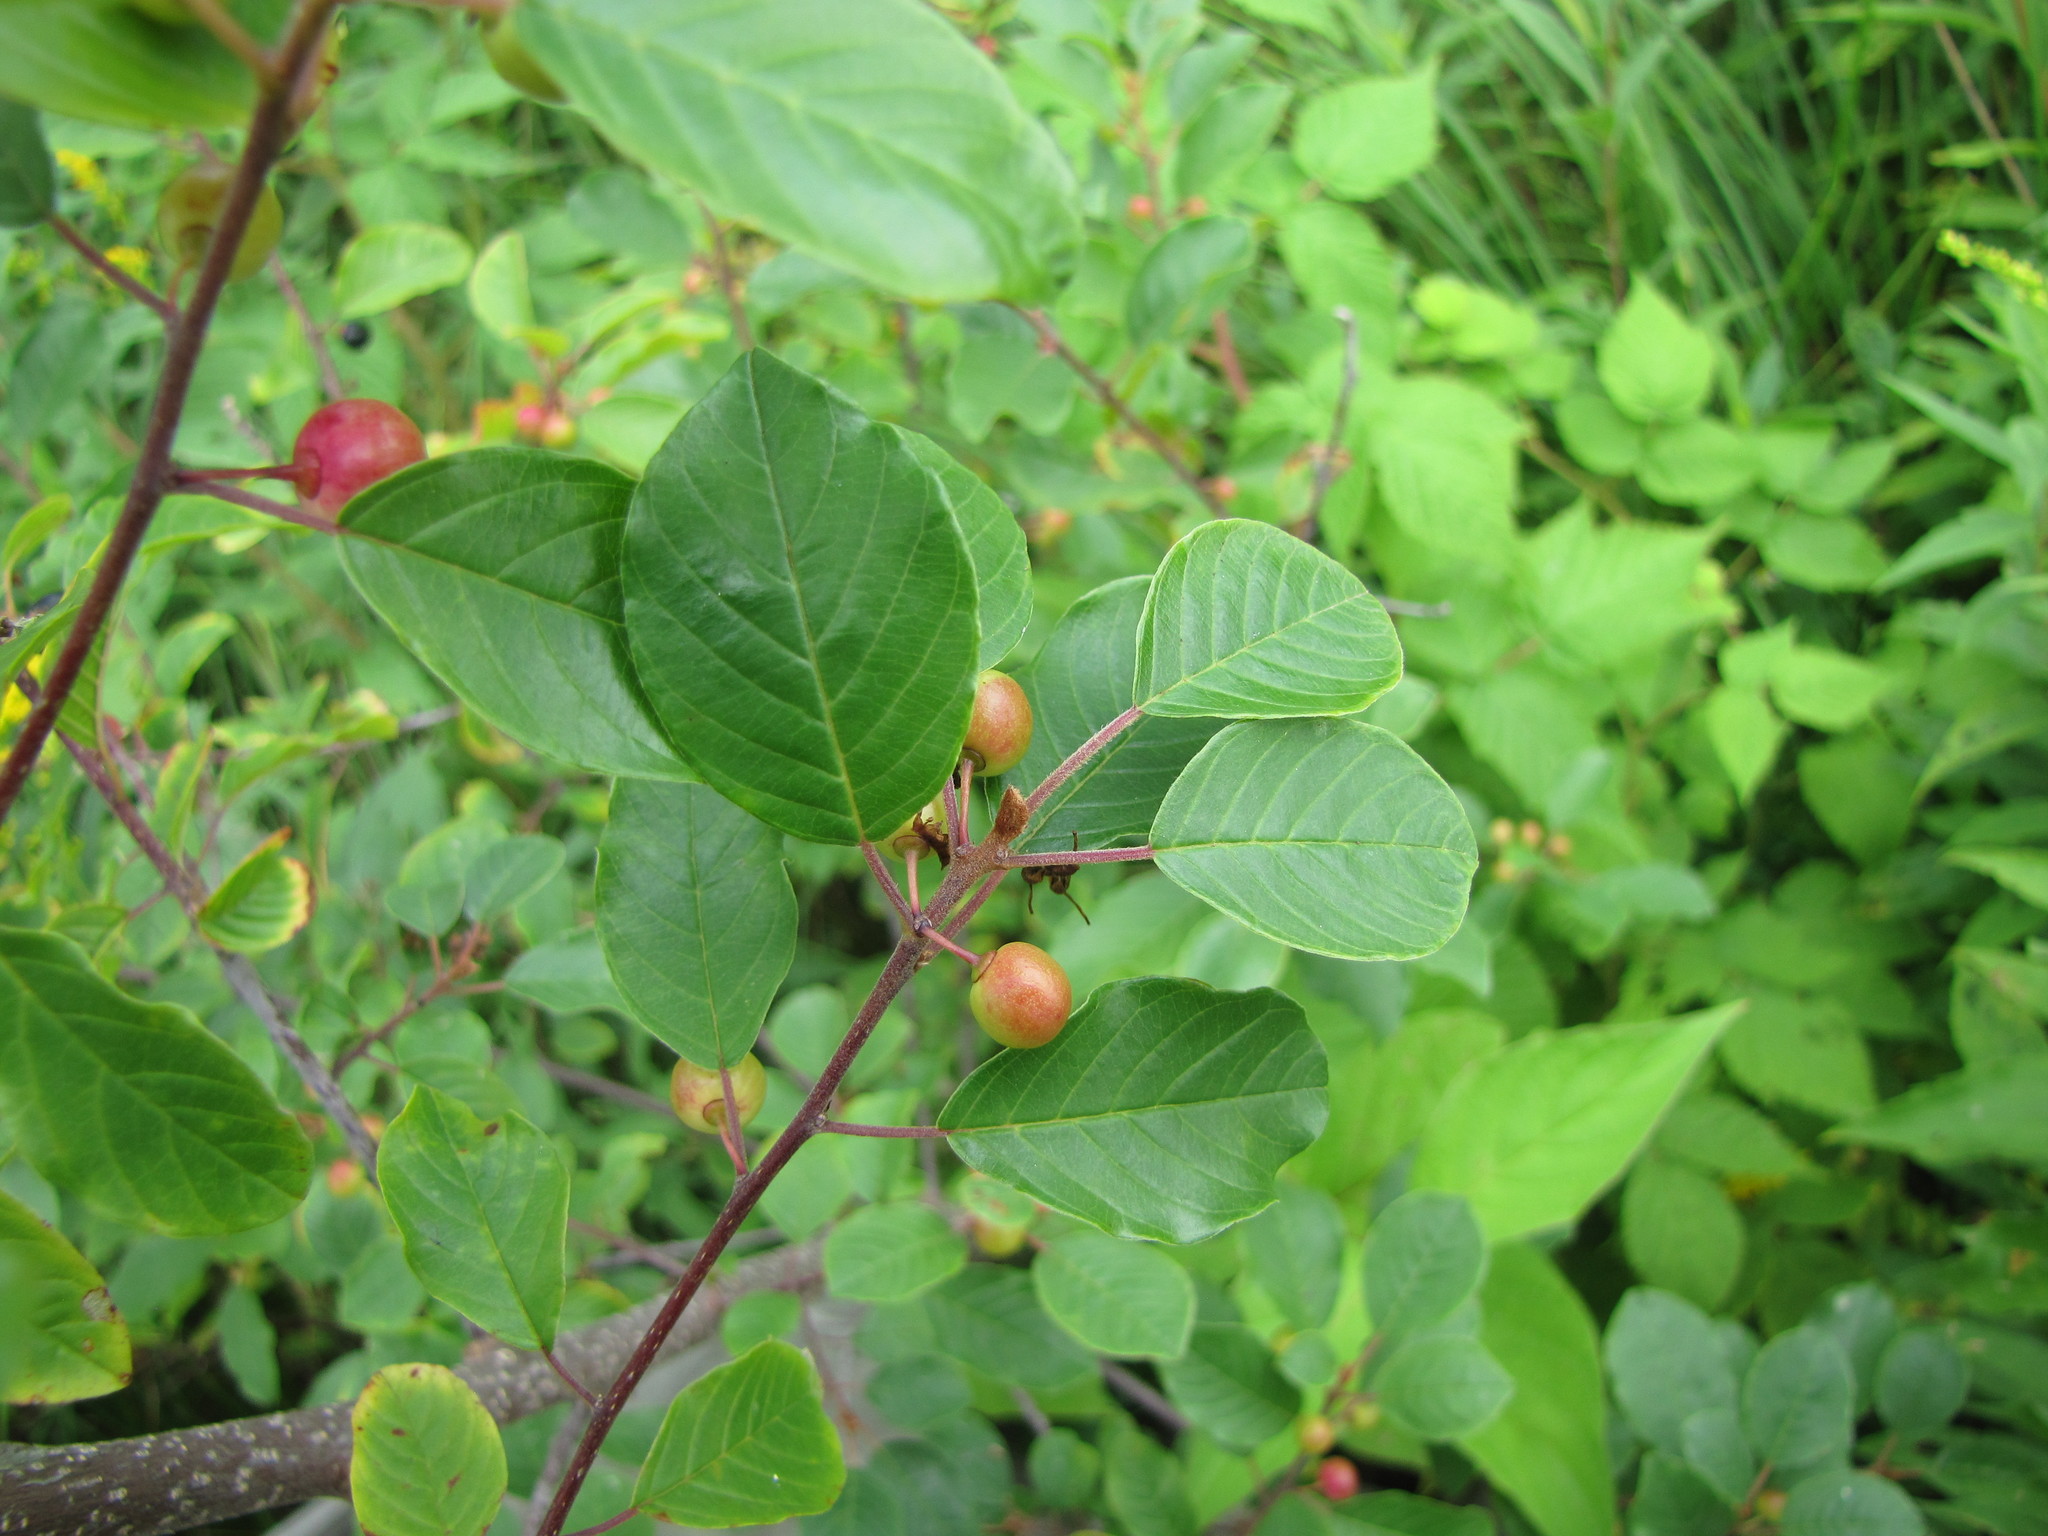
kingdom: Plantae
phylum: Tracheophyta
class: Magnoliopsida
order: Rosales
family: Rhamnaceae
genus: Frangula
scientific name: Frangula alnus
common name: Alder buckthorn
